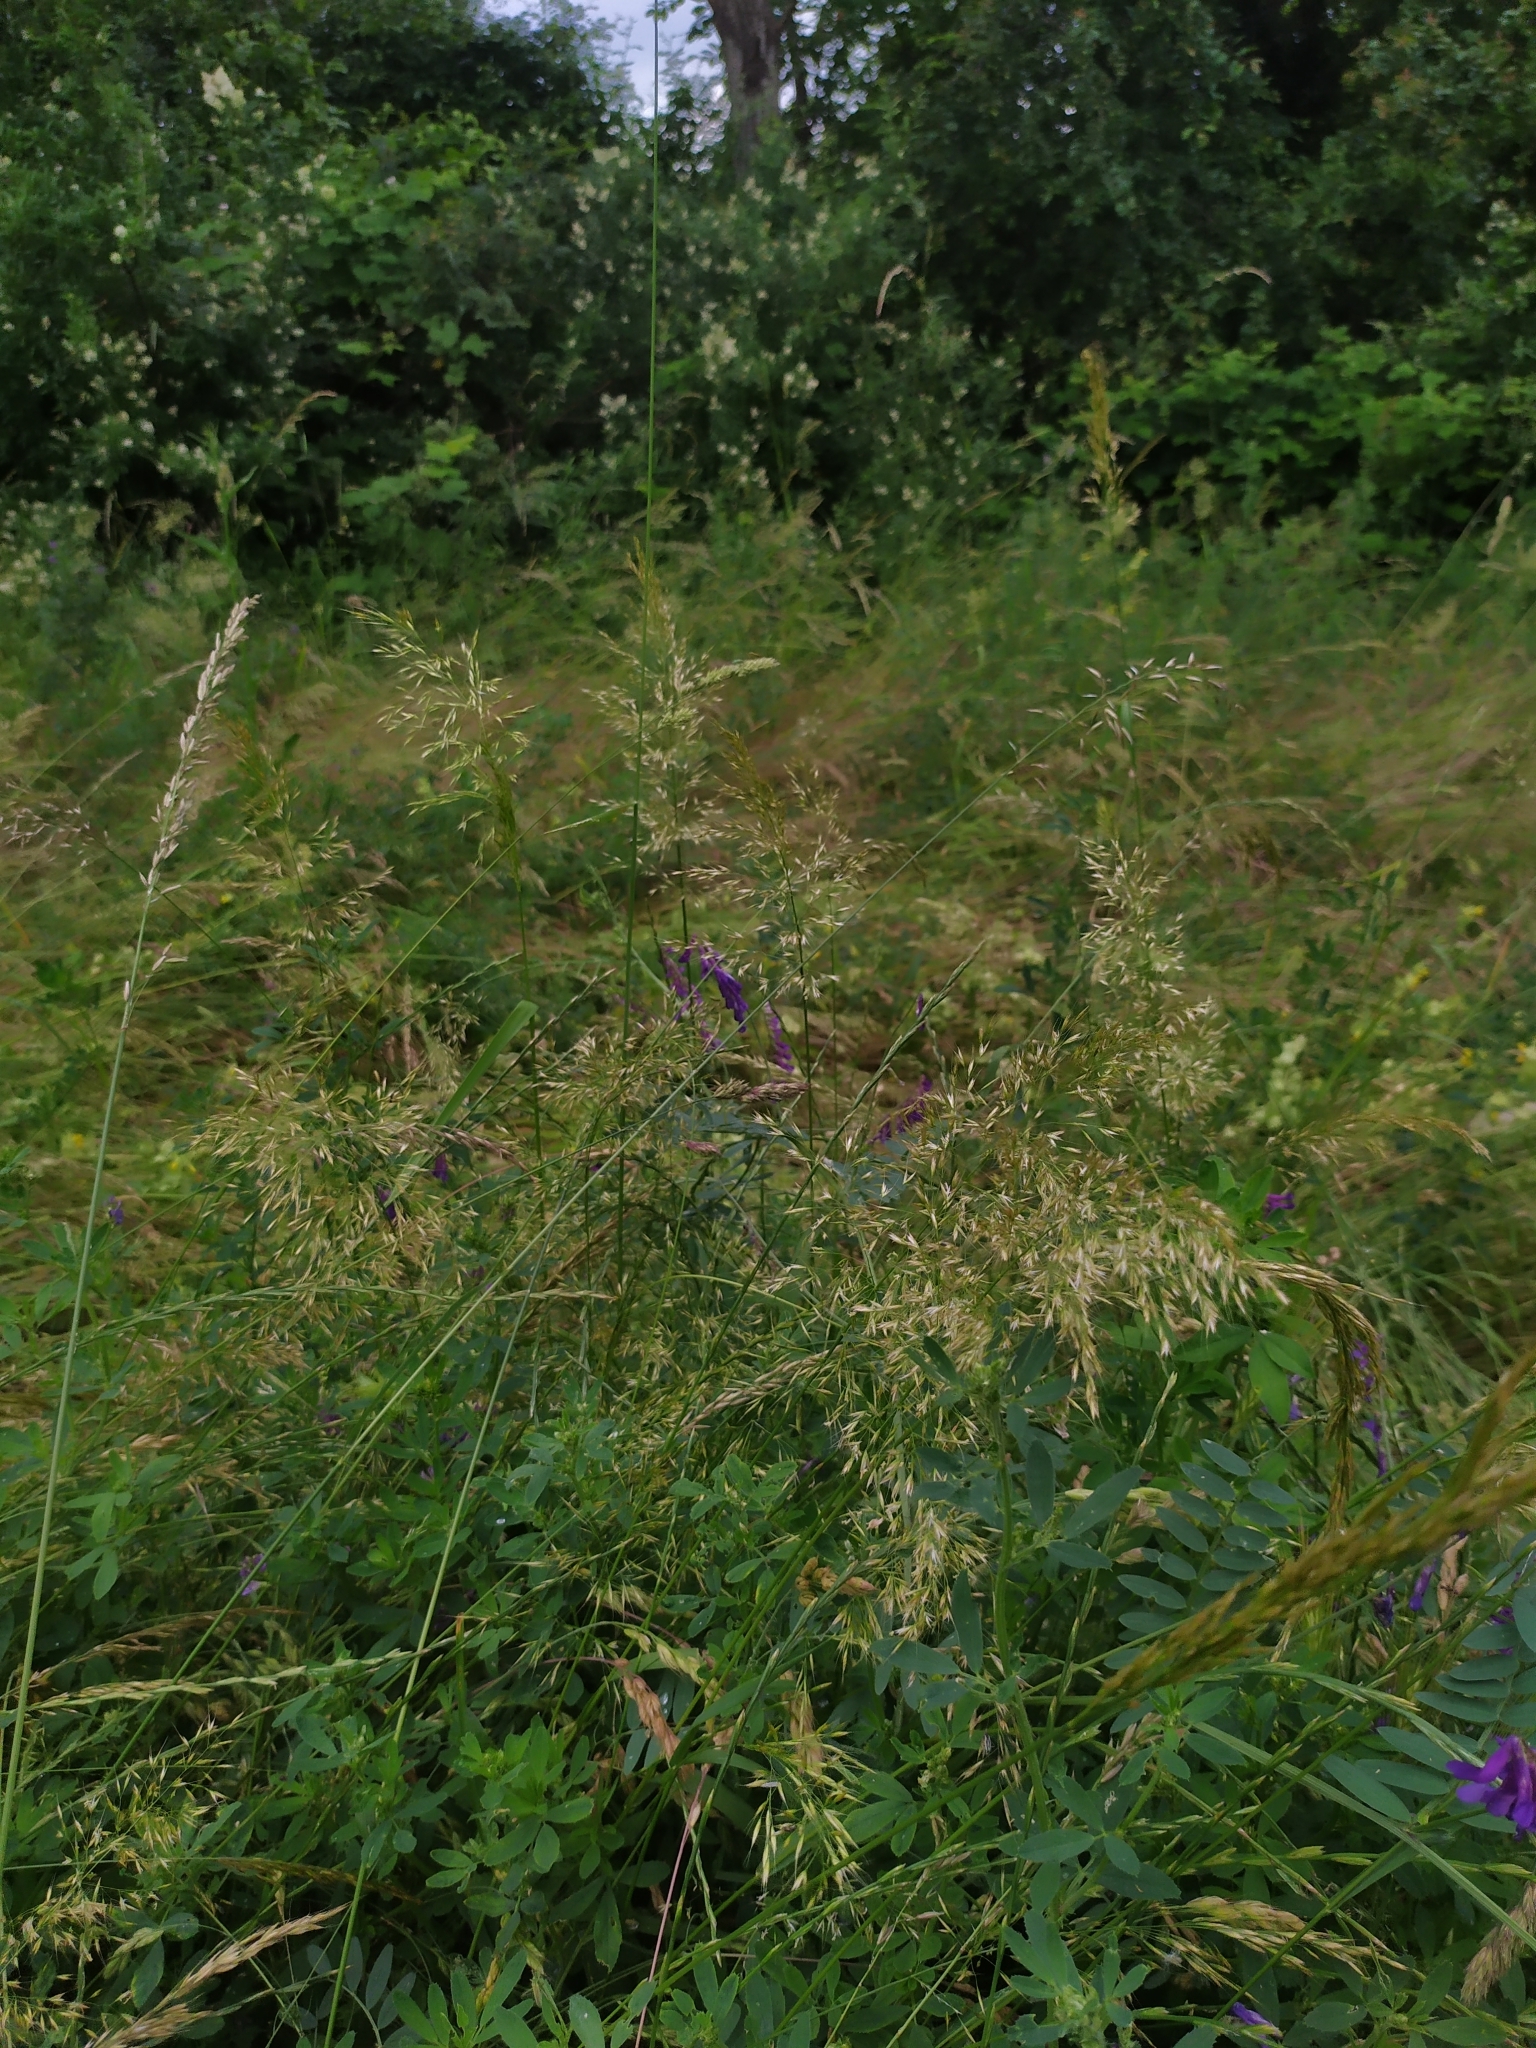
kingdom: Plantae
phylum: Tracheophyta
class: Liliopsida
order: Poales
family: Poaceae
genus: Trisetum
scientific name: Trisetum flavescens
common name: Yellow oat-grass
